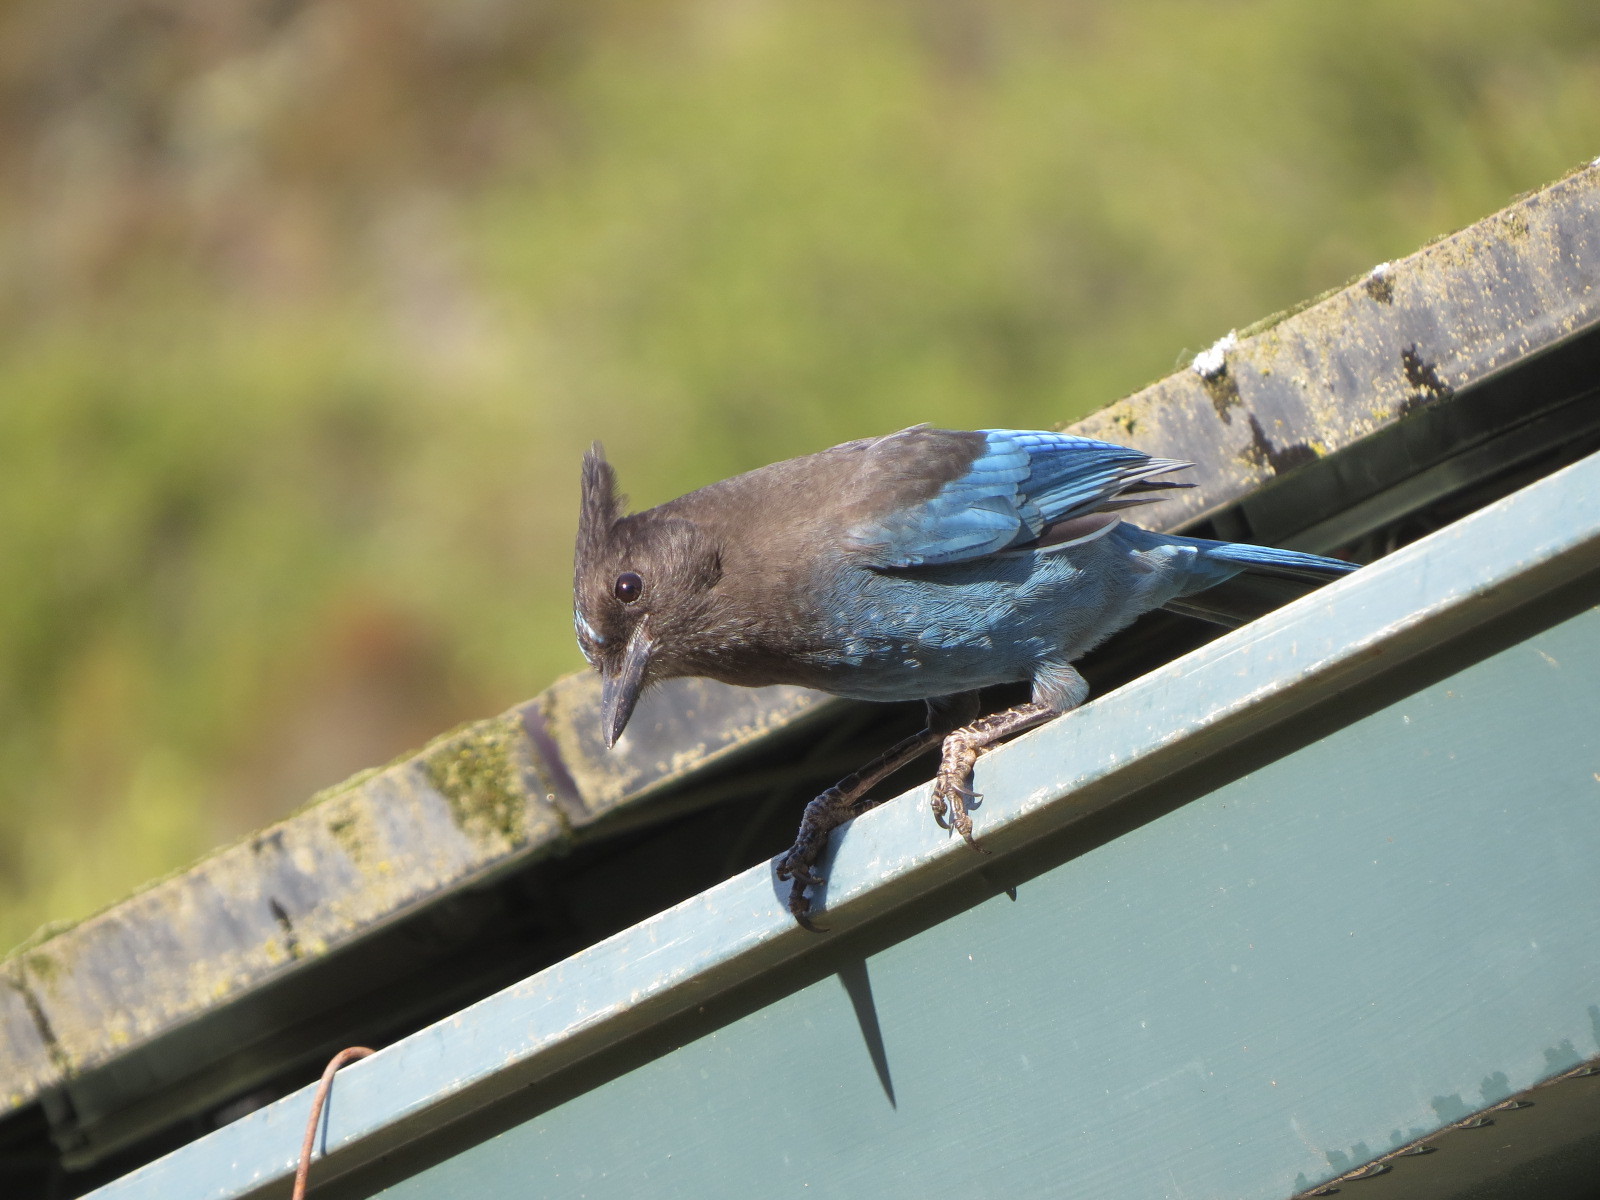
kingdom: Animalia
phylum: Chordata
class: Aves
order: Passeriformes
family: Corvidae
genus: Cyanocitta
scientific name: Cyanocitta stelleri
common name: Steller's jay
